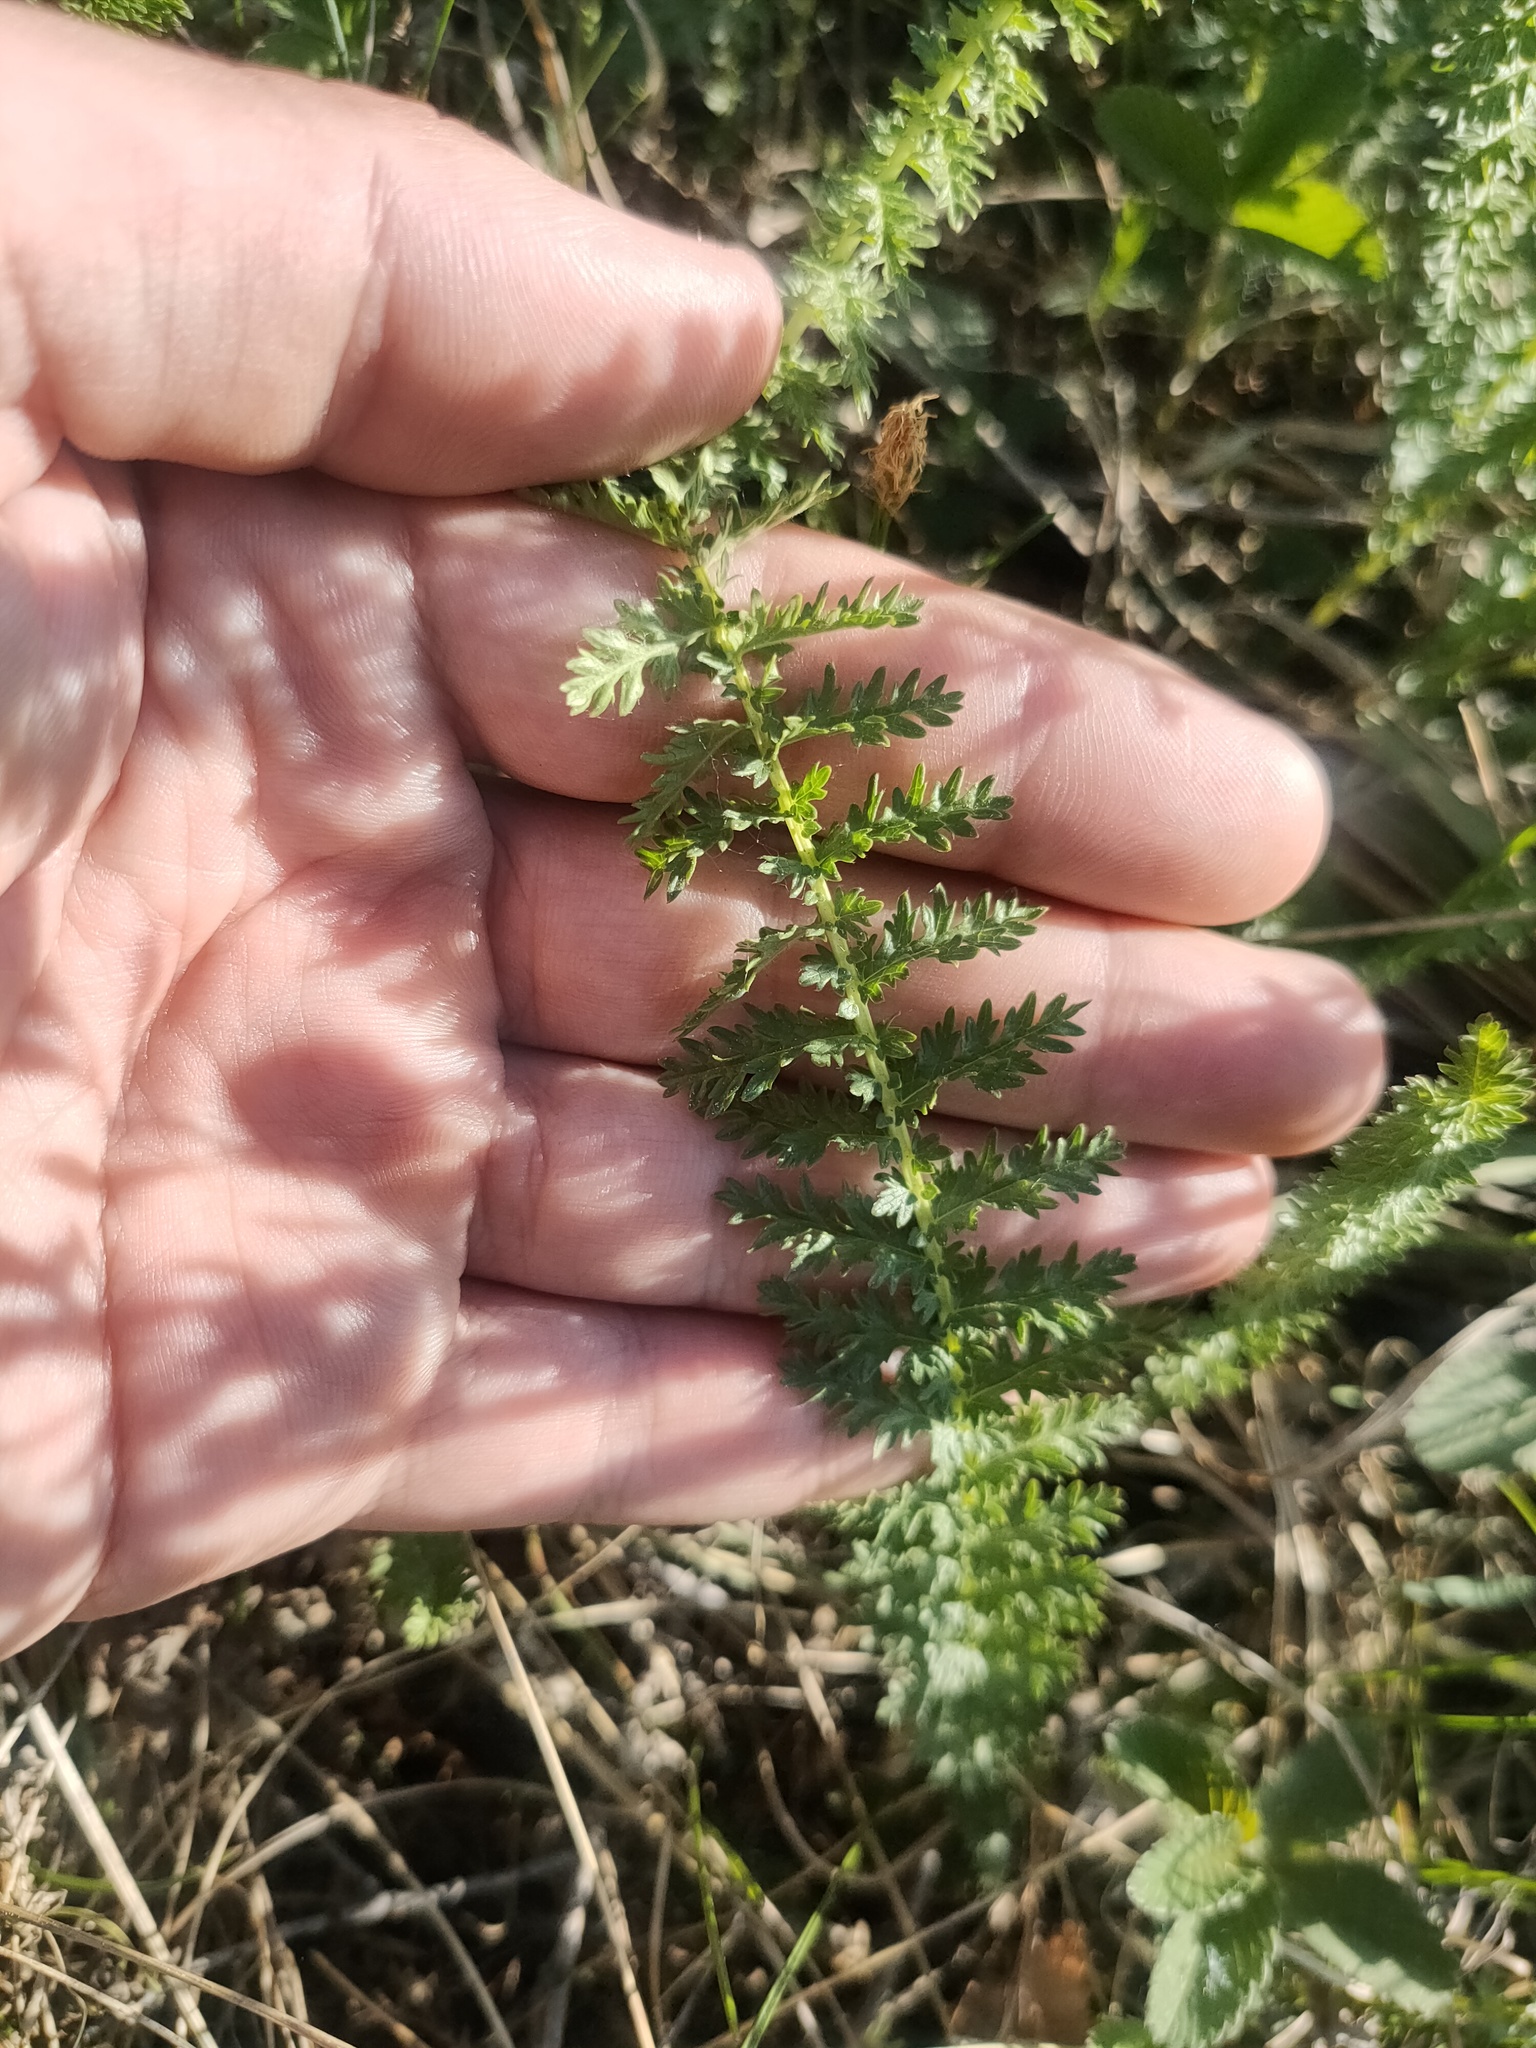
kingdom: Plantae
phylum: Tracheophyta
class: Magnoliopsida
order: Rosales
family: Rosaceae
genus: Filipendula
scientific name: Filipendula vulgaris
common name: Dropwort
